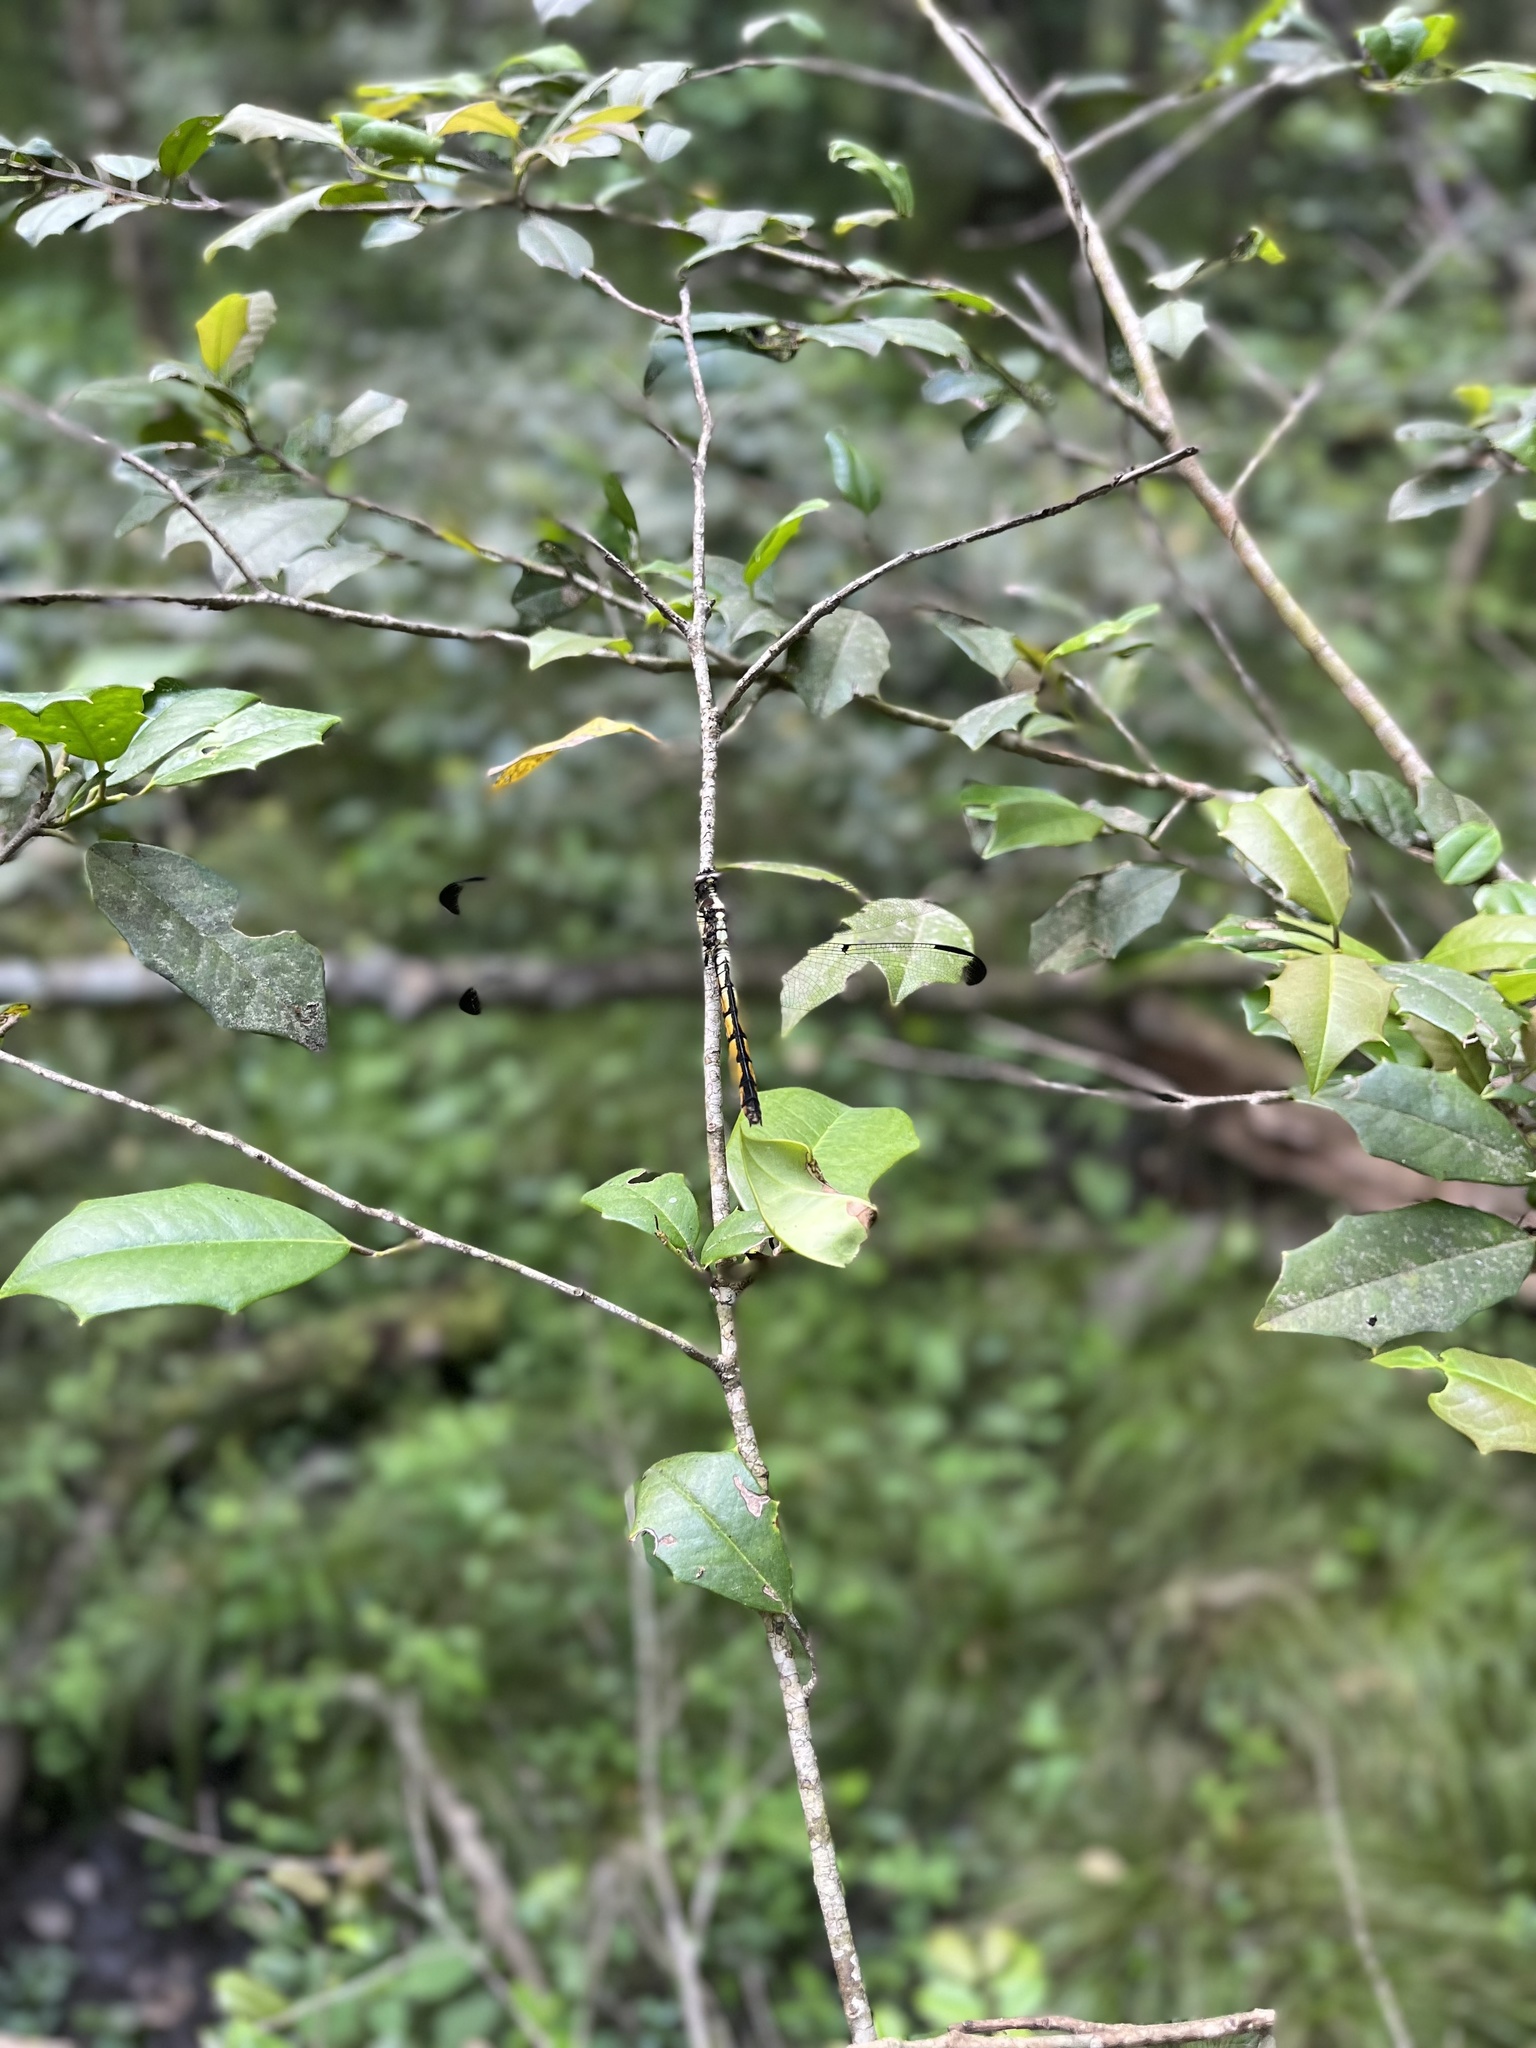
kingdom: Animalia
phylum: Arthropoda
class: Insecta
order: Odonata
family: Libellulidae
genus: Libellula
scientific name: Libellula vibrans
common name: Great blue skimmer
